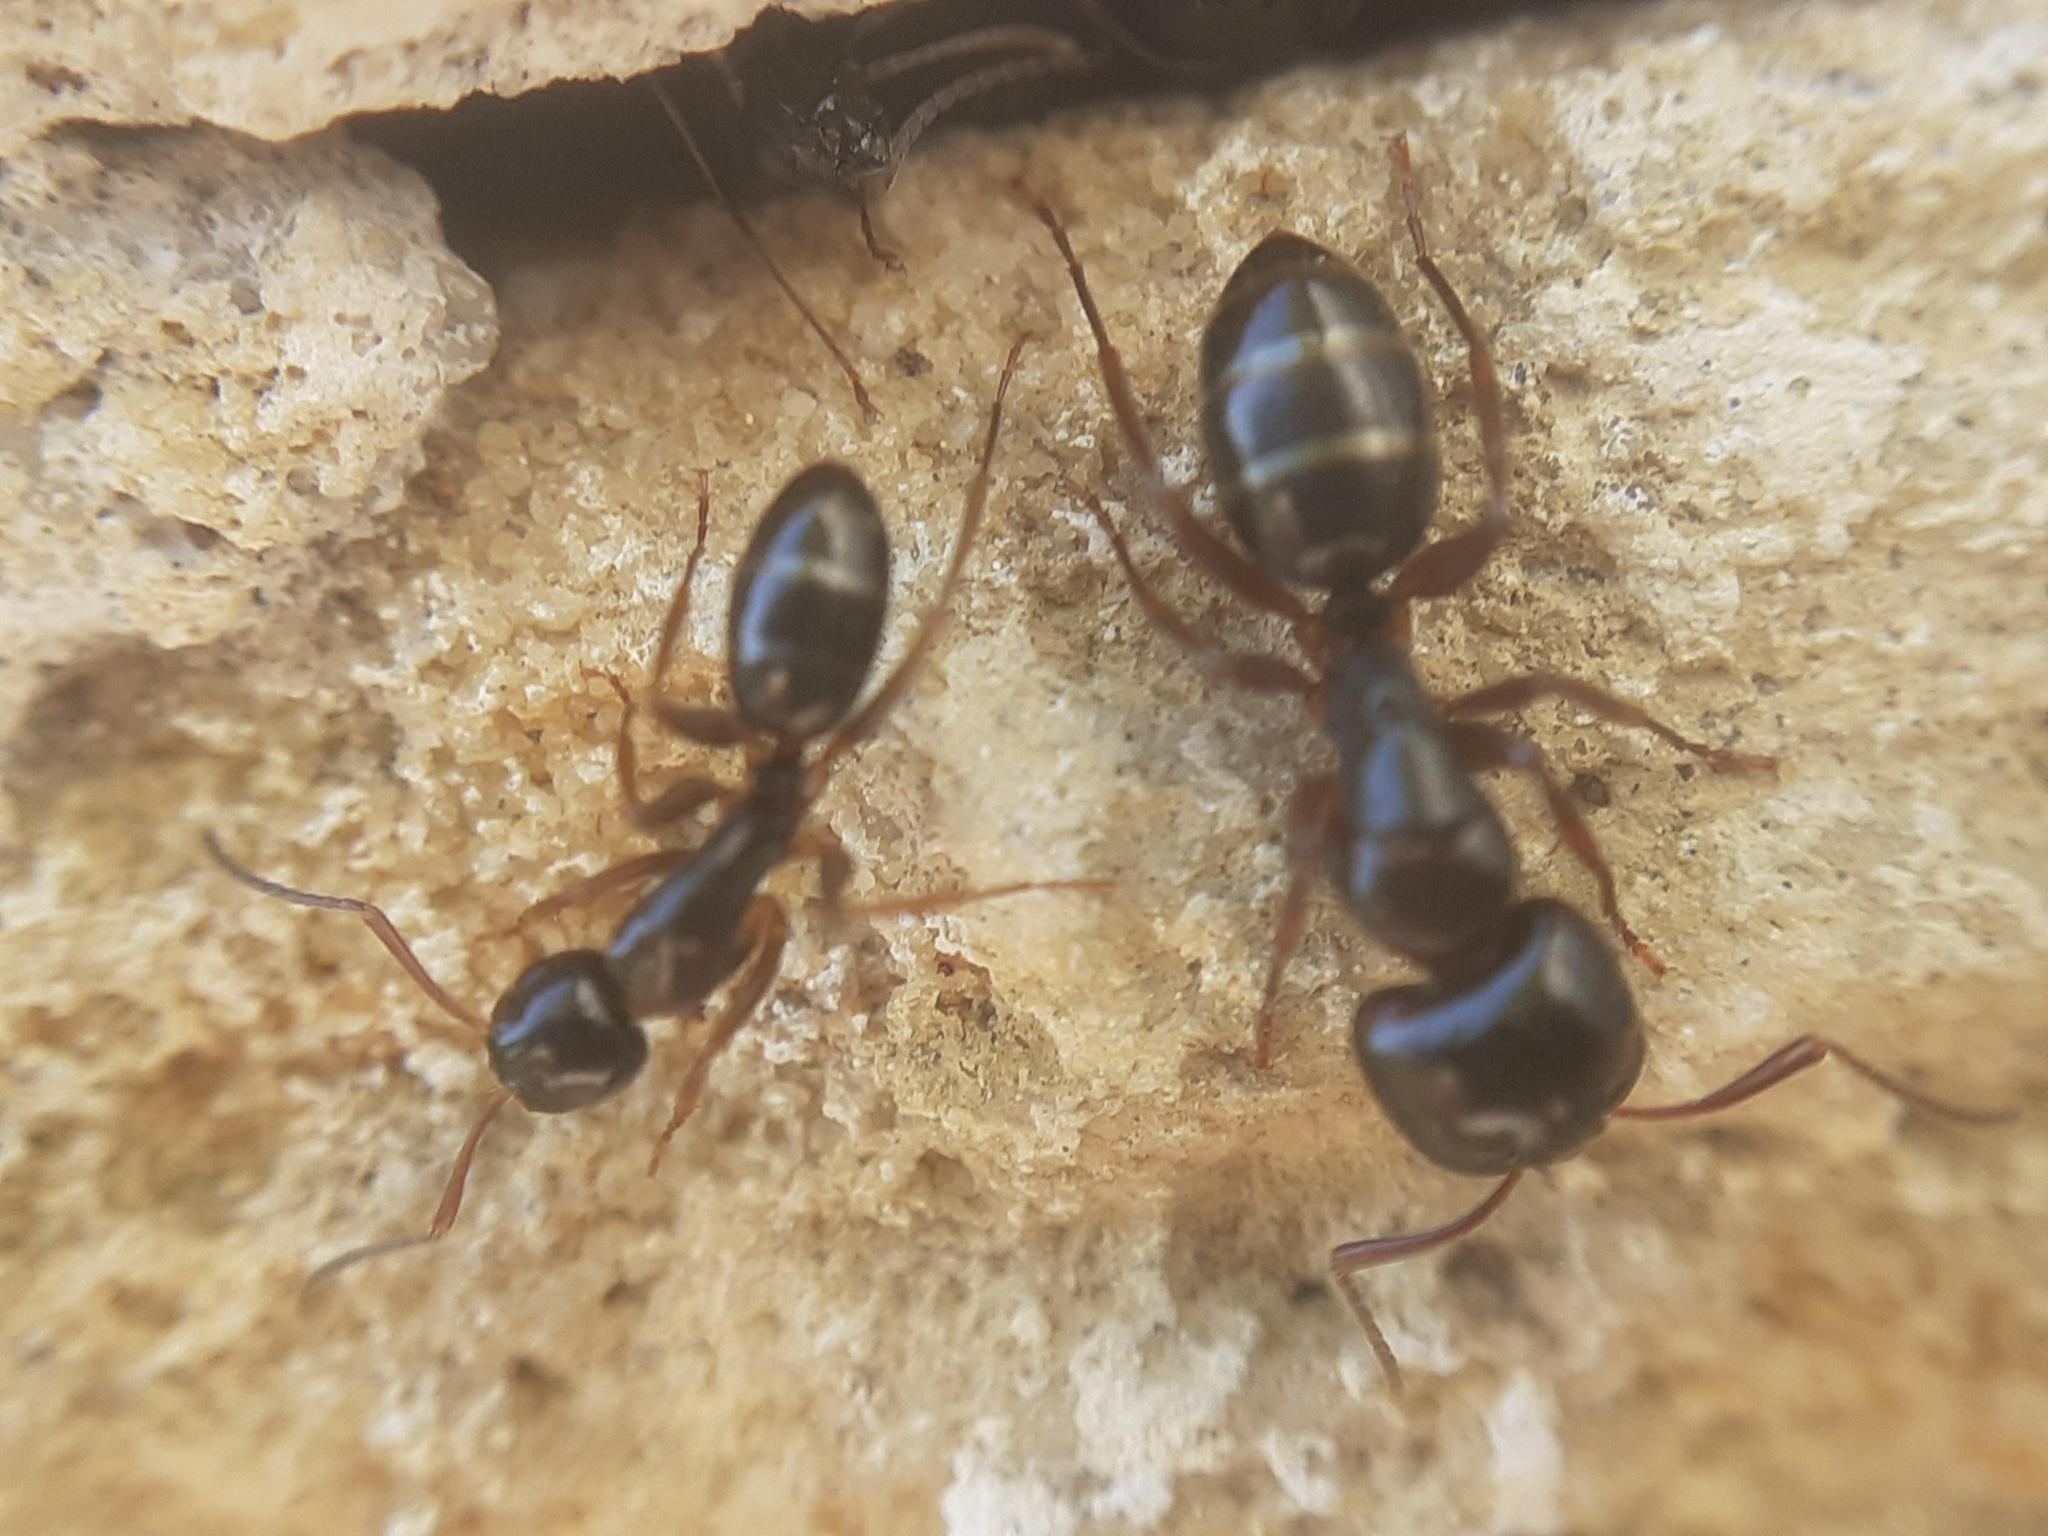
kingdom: Animalia
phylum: Arthropoda
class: Insecta
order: Hymenoptera
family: Formicidae
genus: Camponotus
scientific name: Camponotus fallax
